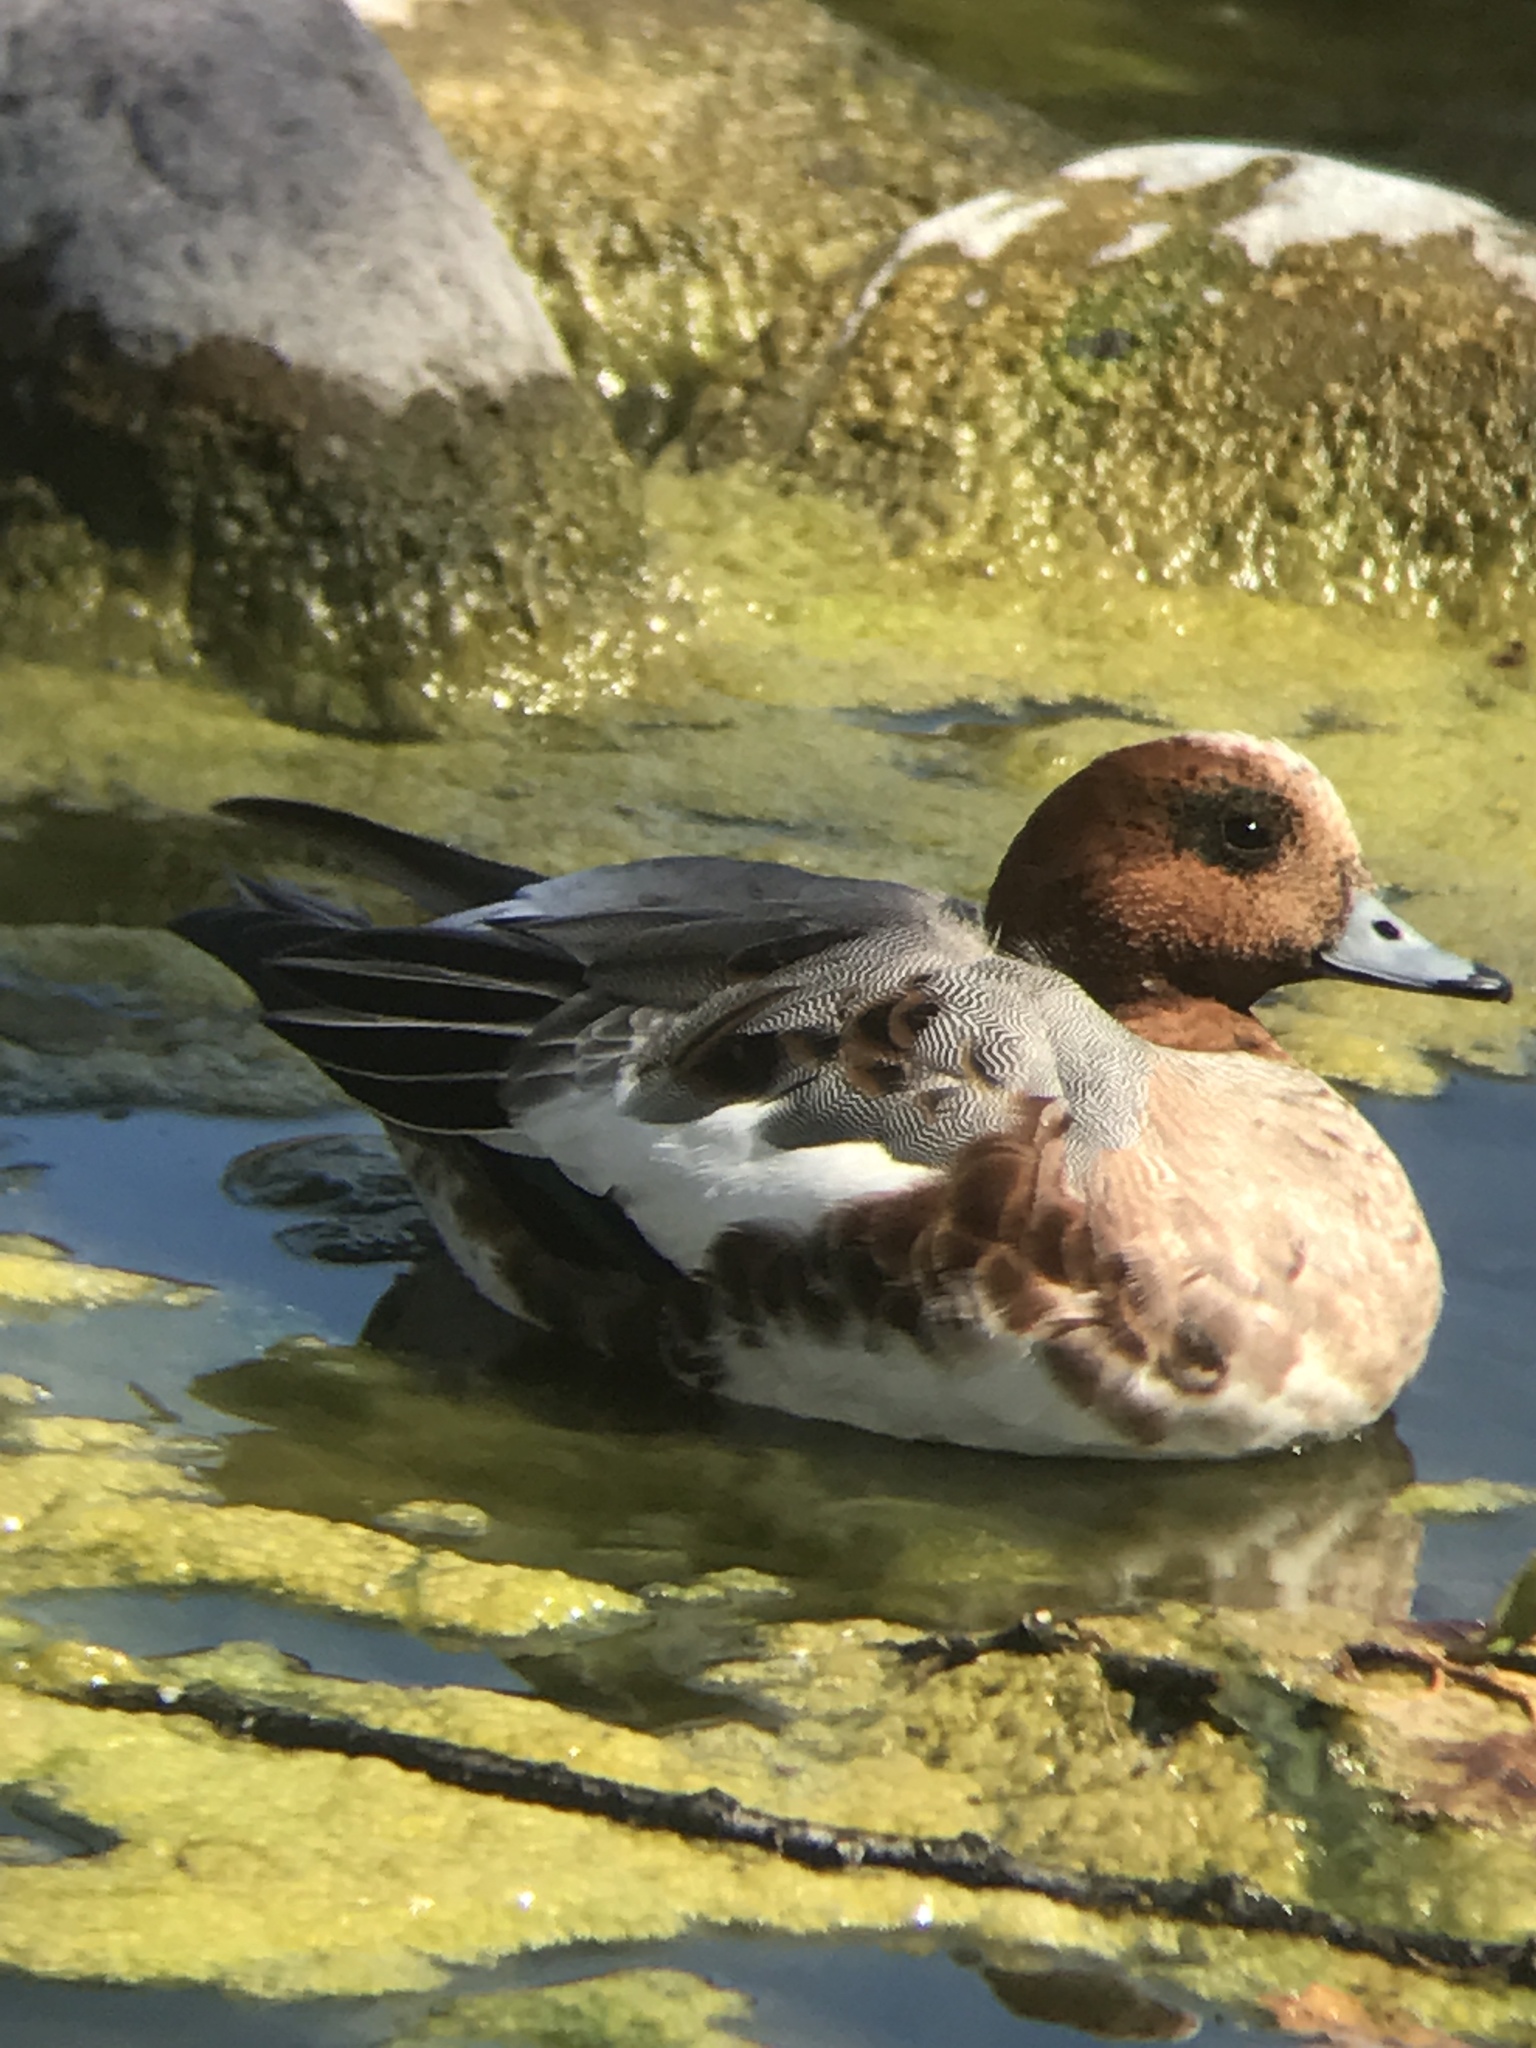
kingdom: Animalia
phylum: Chordata
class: Aves
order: Anseriformes
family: Anatidae
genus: Mareca
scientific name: Mareca penelope
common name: Eurasian wigeon
